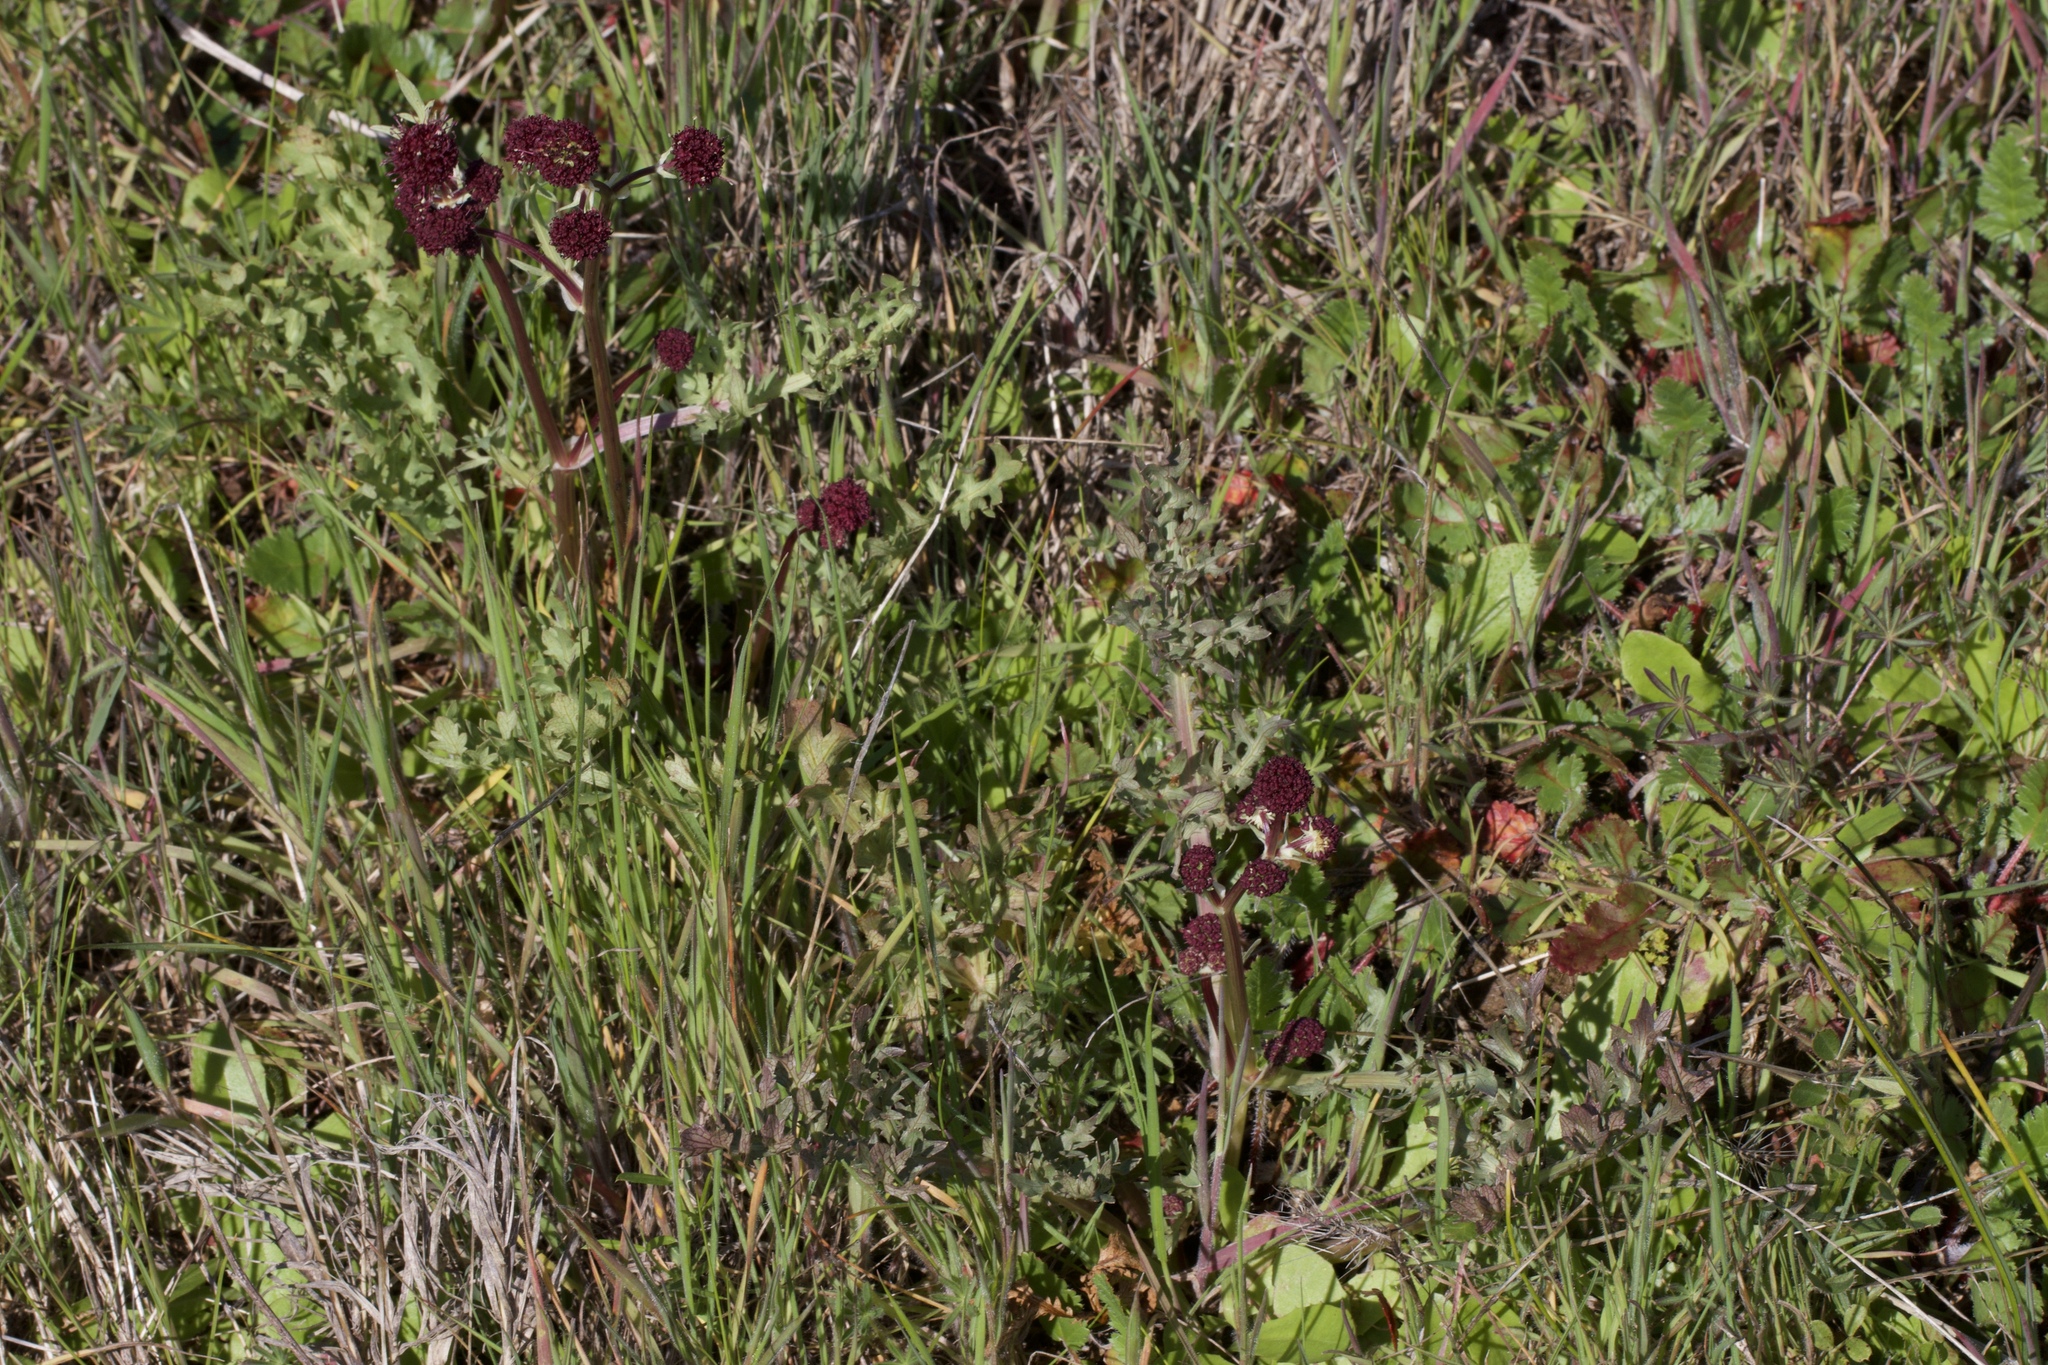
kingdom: Plantae
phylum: Tracheophyta
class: Magnoliopsida
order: Apiales
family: Apiaceae
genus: Sanicula
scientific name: Sanicula bipinnatifida
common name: Shoe-buttons
